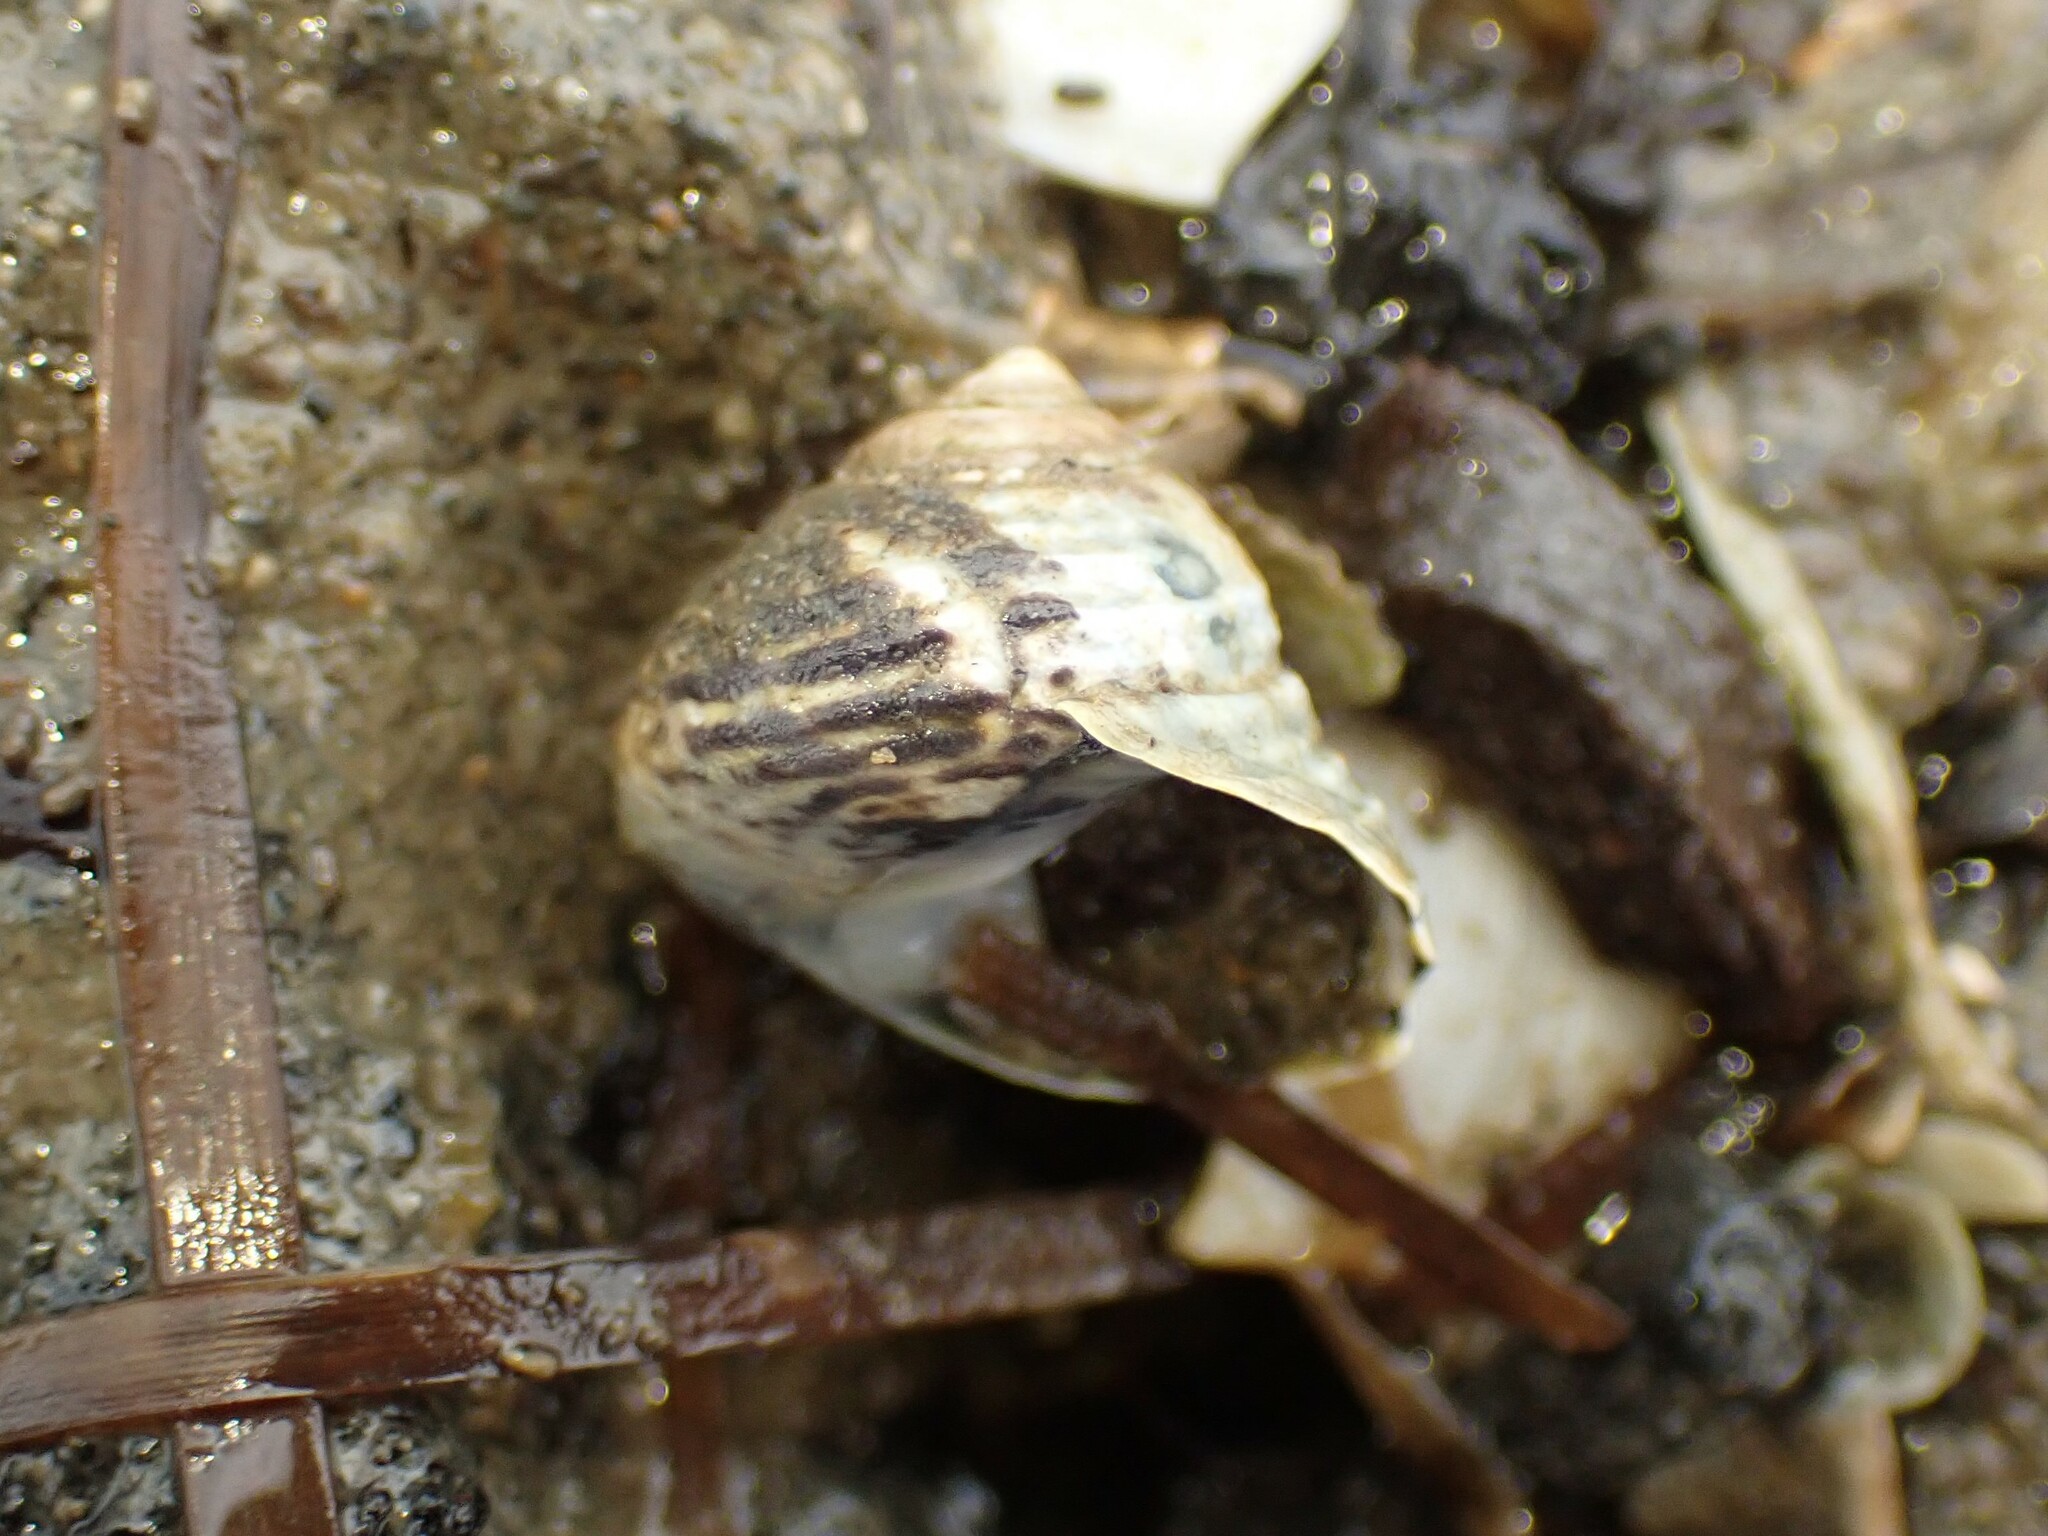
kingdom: Animalia
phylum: Mollusca
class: Gastropoda
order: Trochida
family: Trochidae
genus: Diloma
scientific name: Diloma subrostratum
